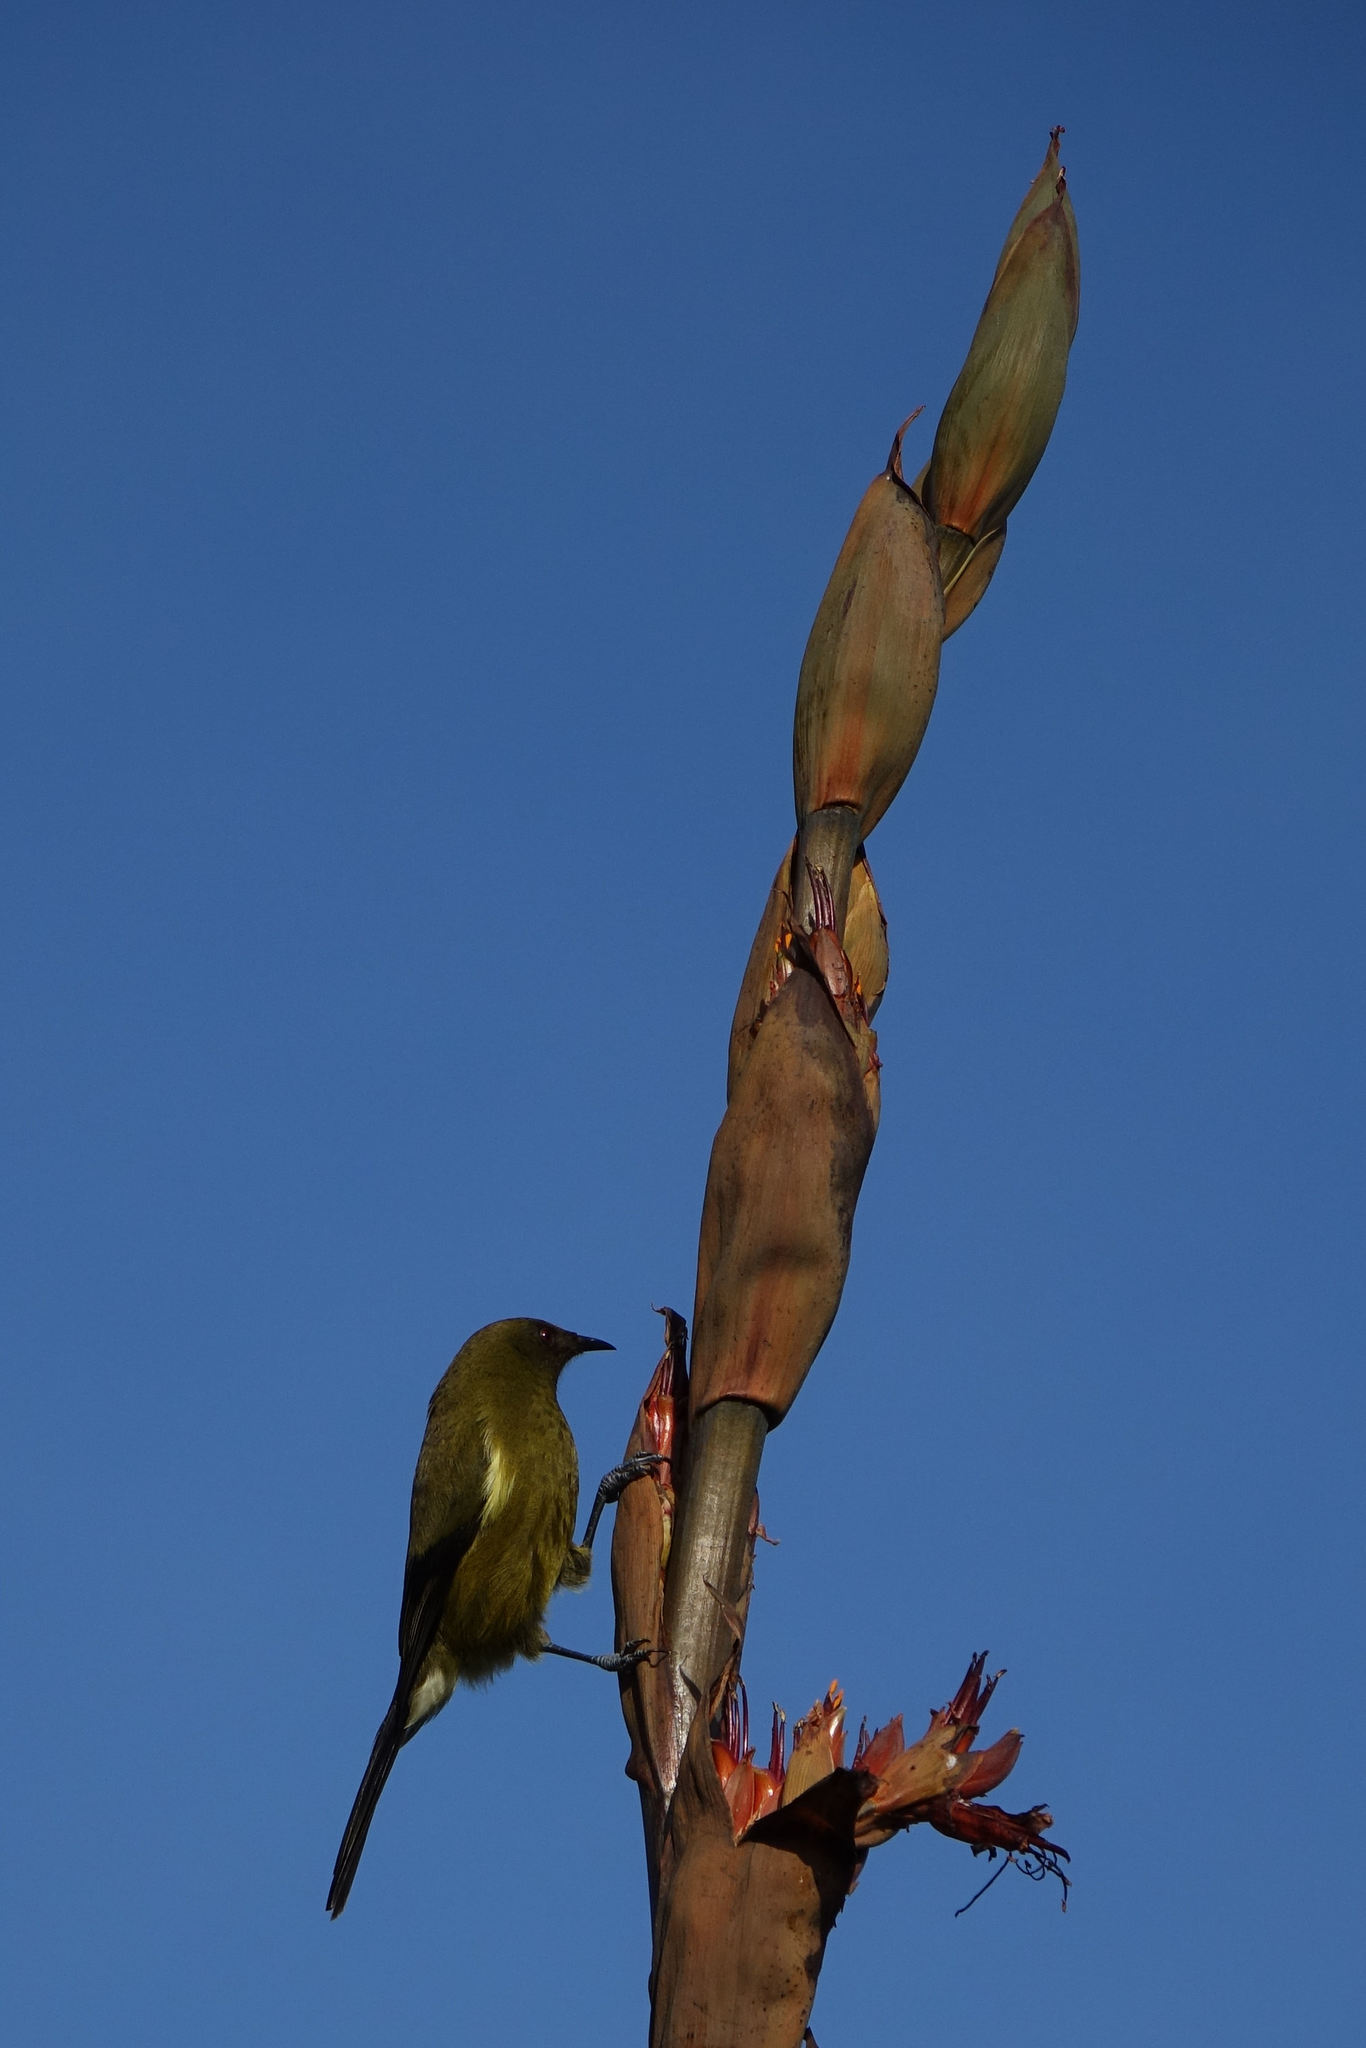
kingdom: Animalia
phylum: Chordata
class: Aves
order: Passeriformes
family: Meliphagidae
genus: Anthornis
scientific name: Anthornis melanura
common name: New zealand bellbird
